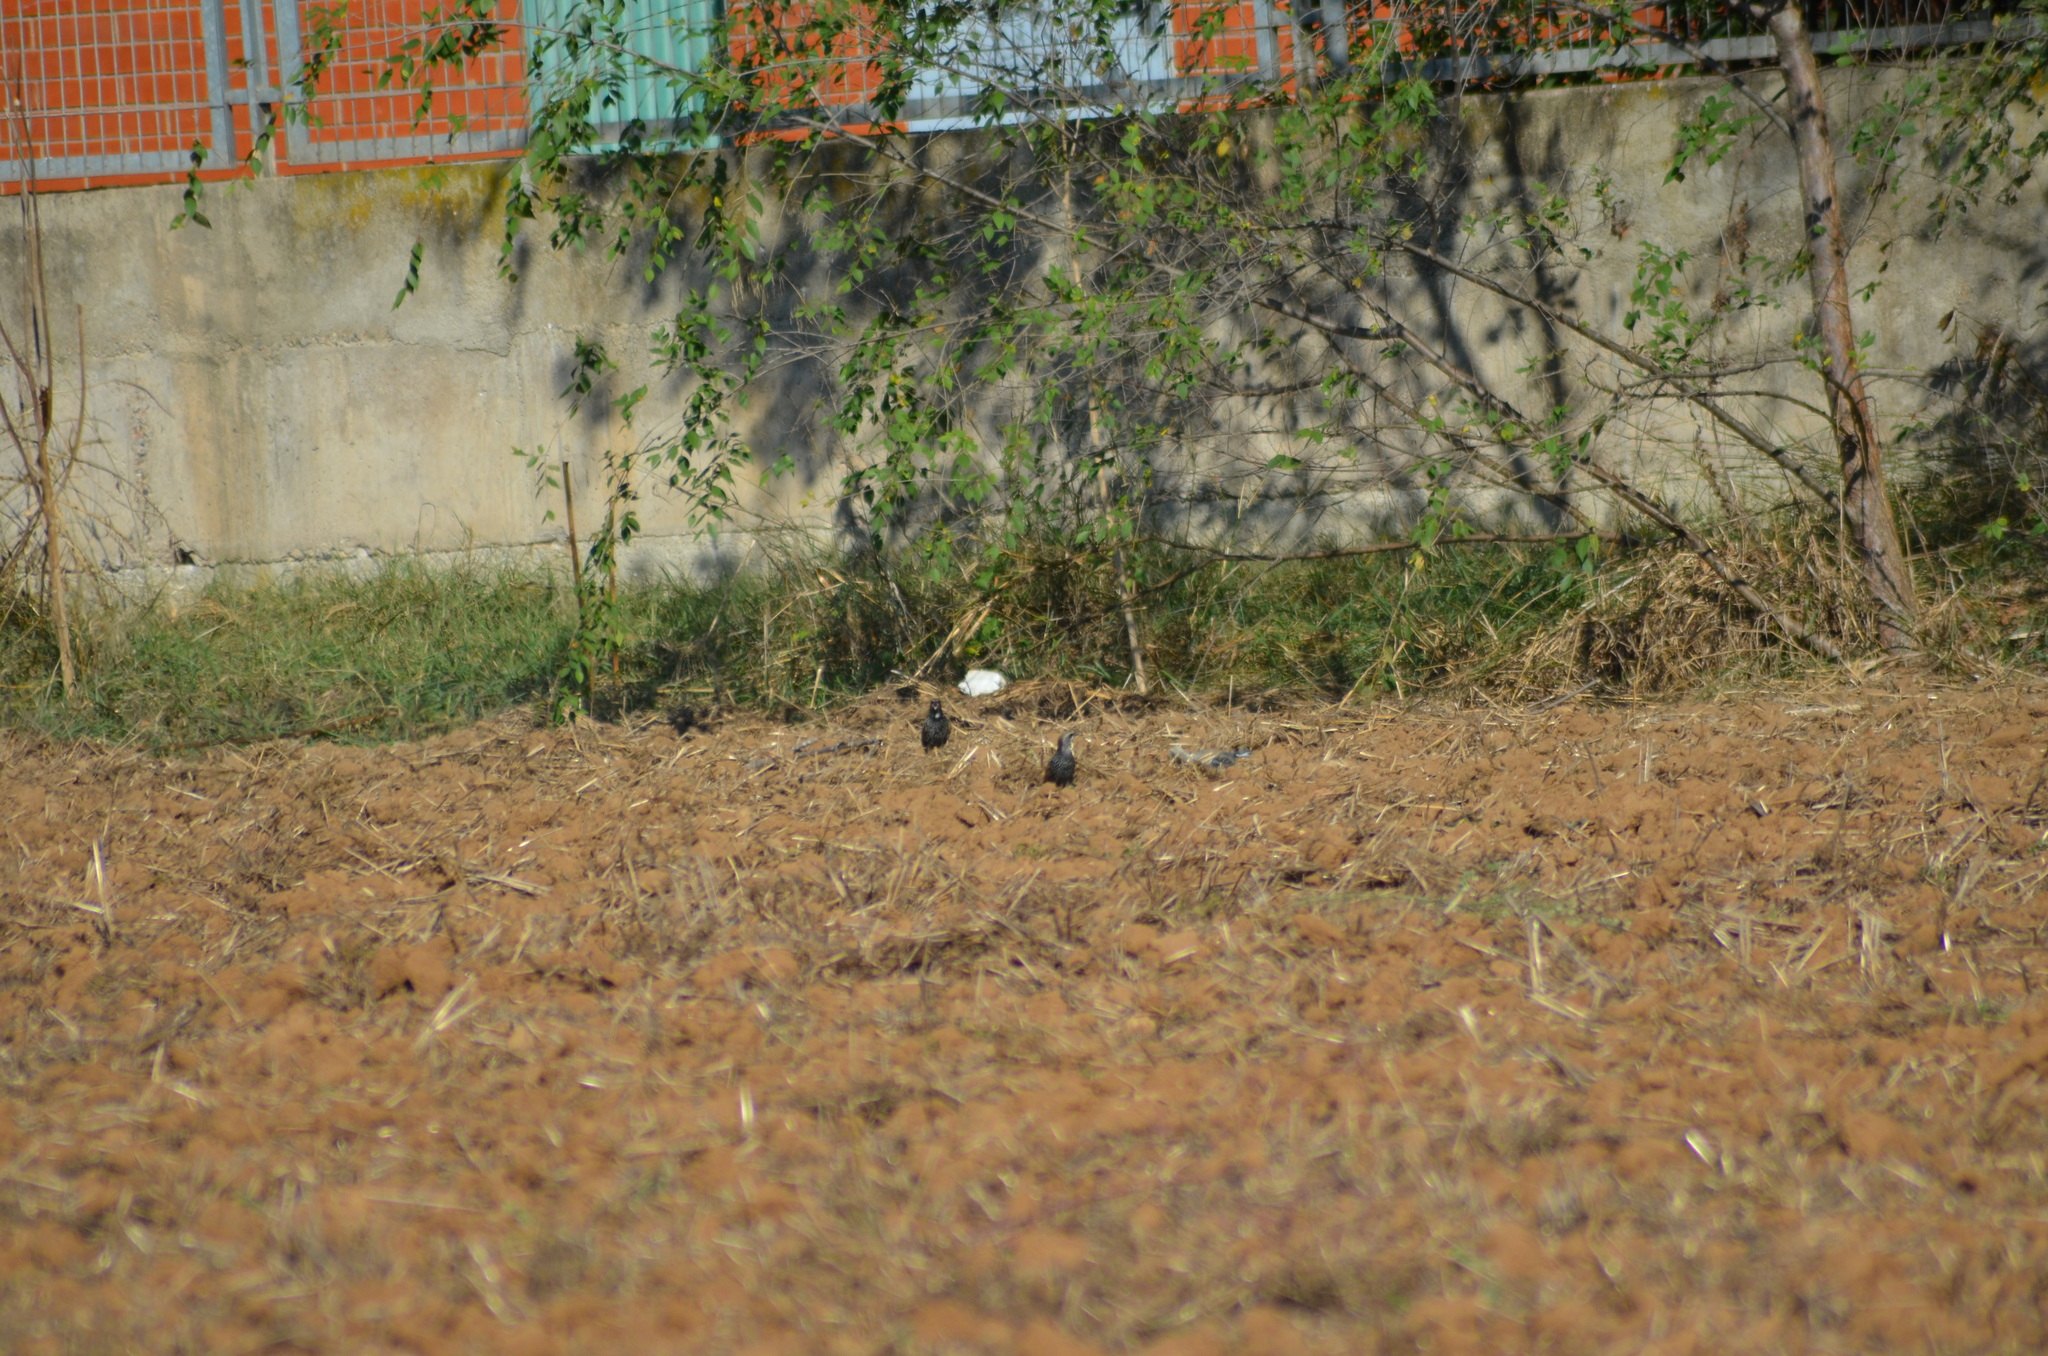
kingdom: Animalia
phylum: Chordata
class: Aves
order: Passeriformes
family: Sturnidae
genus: Sturnus
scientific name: Sturnus vulgaris
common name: Common starling
